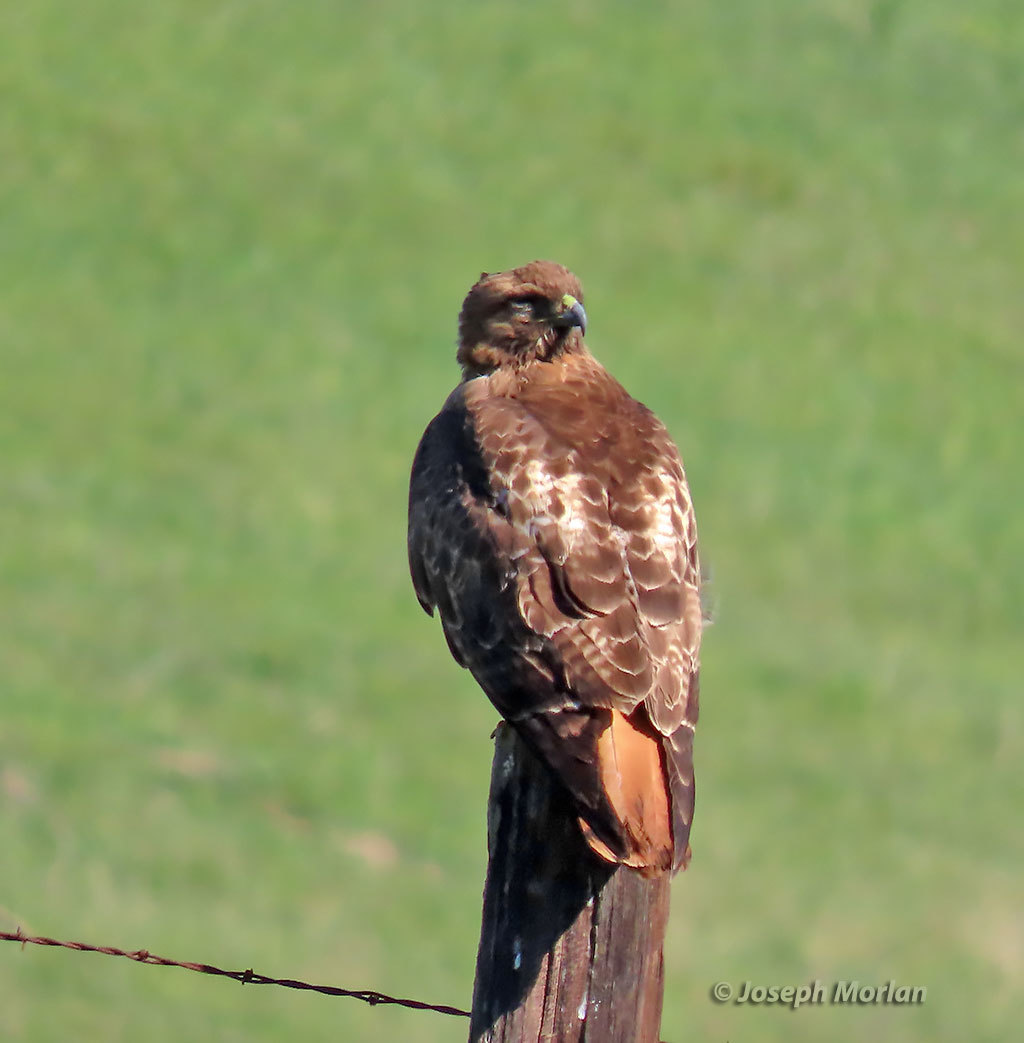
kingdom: Animalia
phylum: Chordata
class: Aves
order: Accipitriformes
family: Accipitridae
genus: Buteo
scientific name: Buteo jamaicensis
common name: Red-tailed hawk
